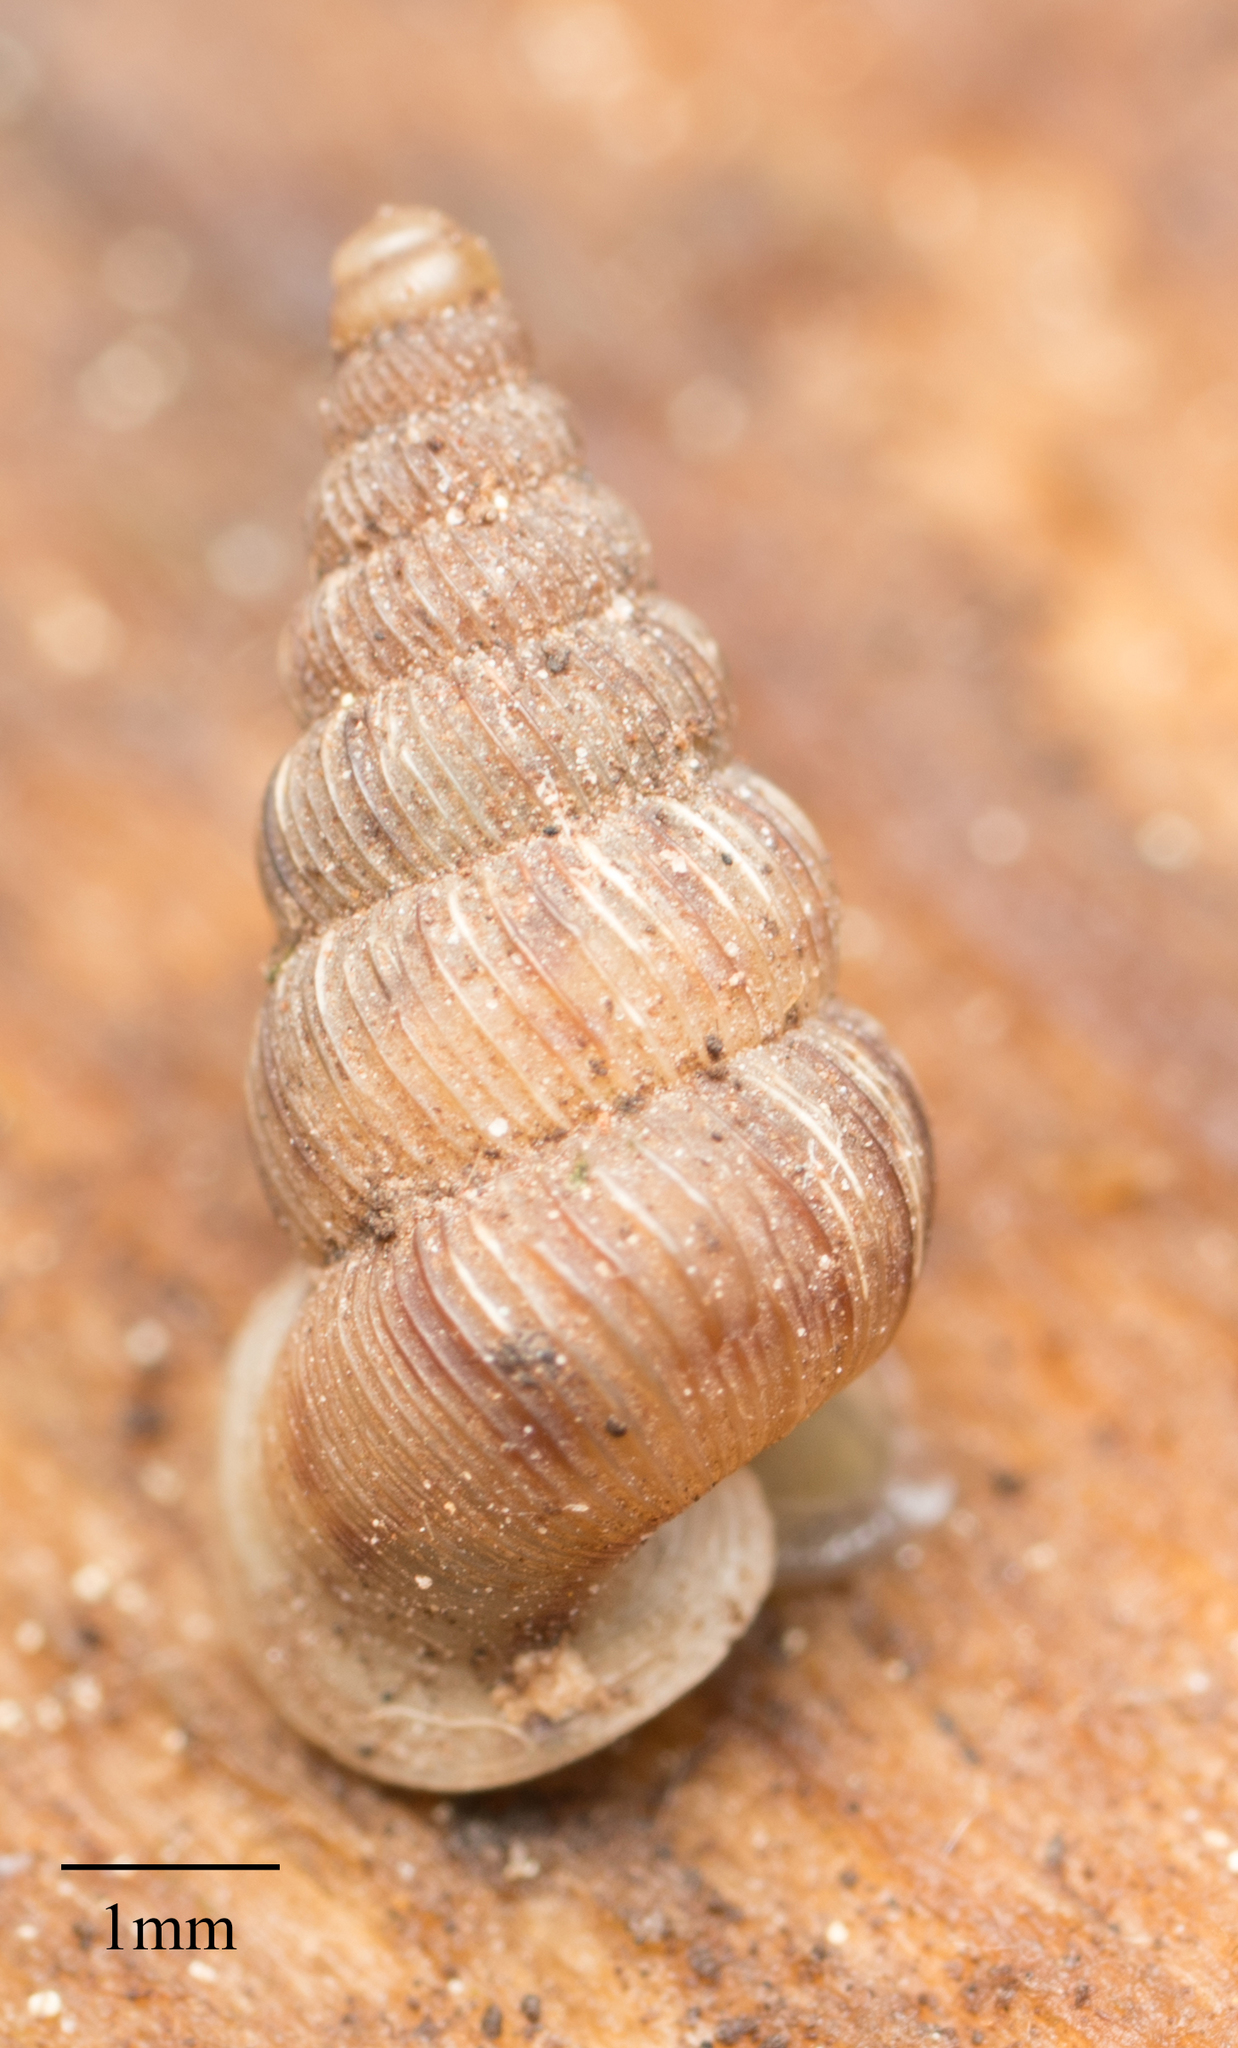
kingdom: Animalia
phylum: Mollusca
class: Gastropoda
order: Architaenioglossa
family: Cochlostomatidae
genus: Cochlostoma
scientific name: Cochlostoma septemspirale
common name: Seven-whorl snail
